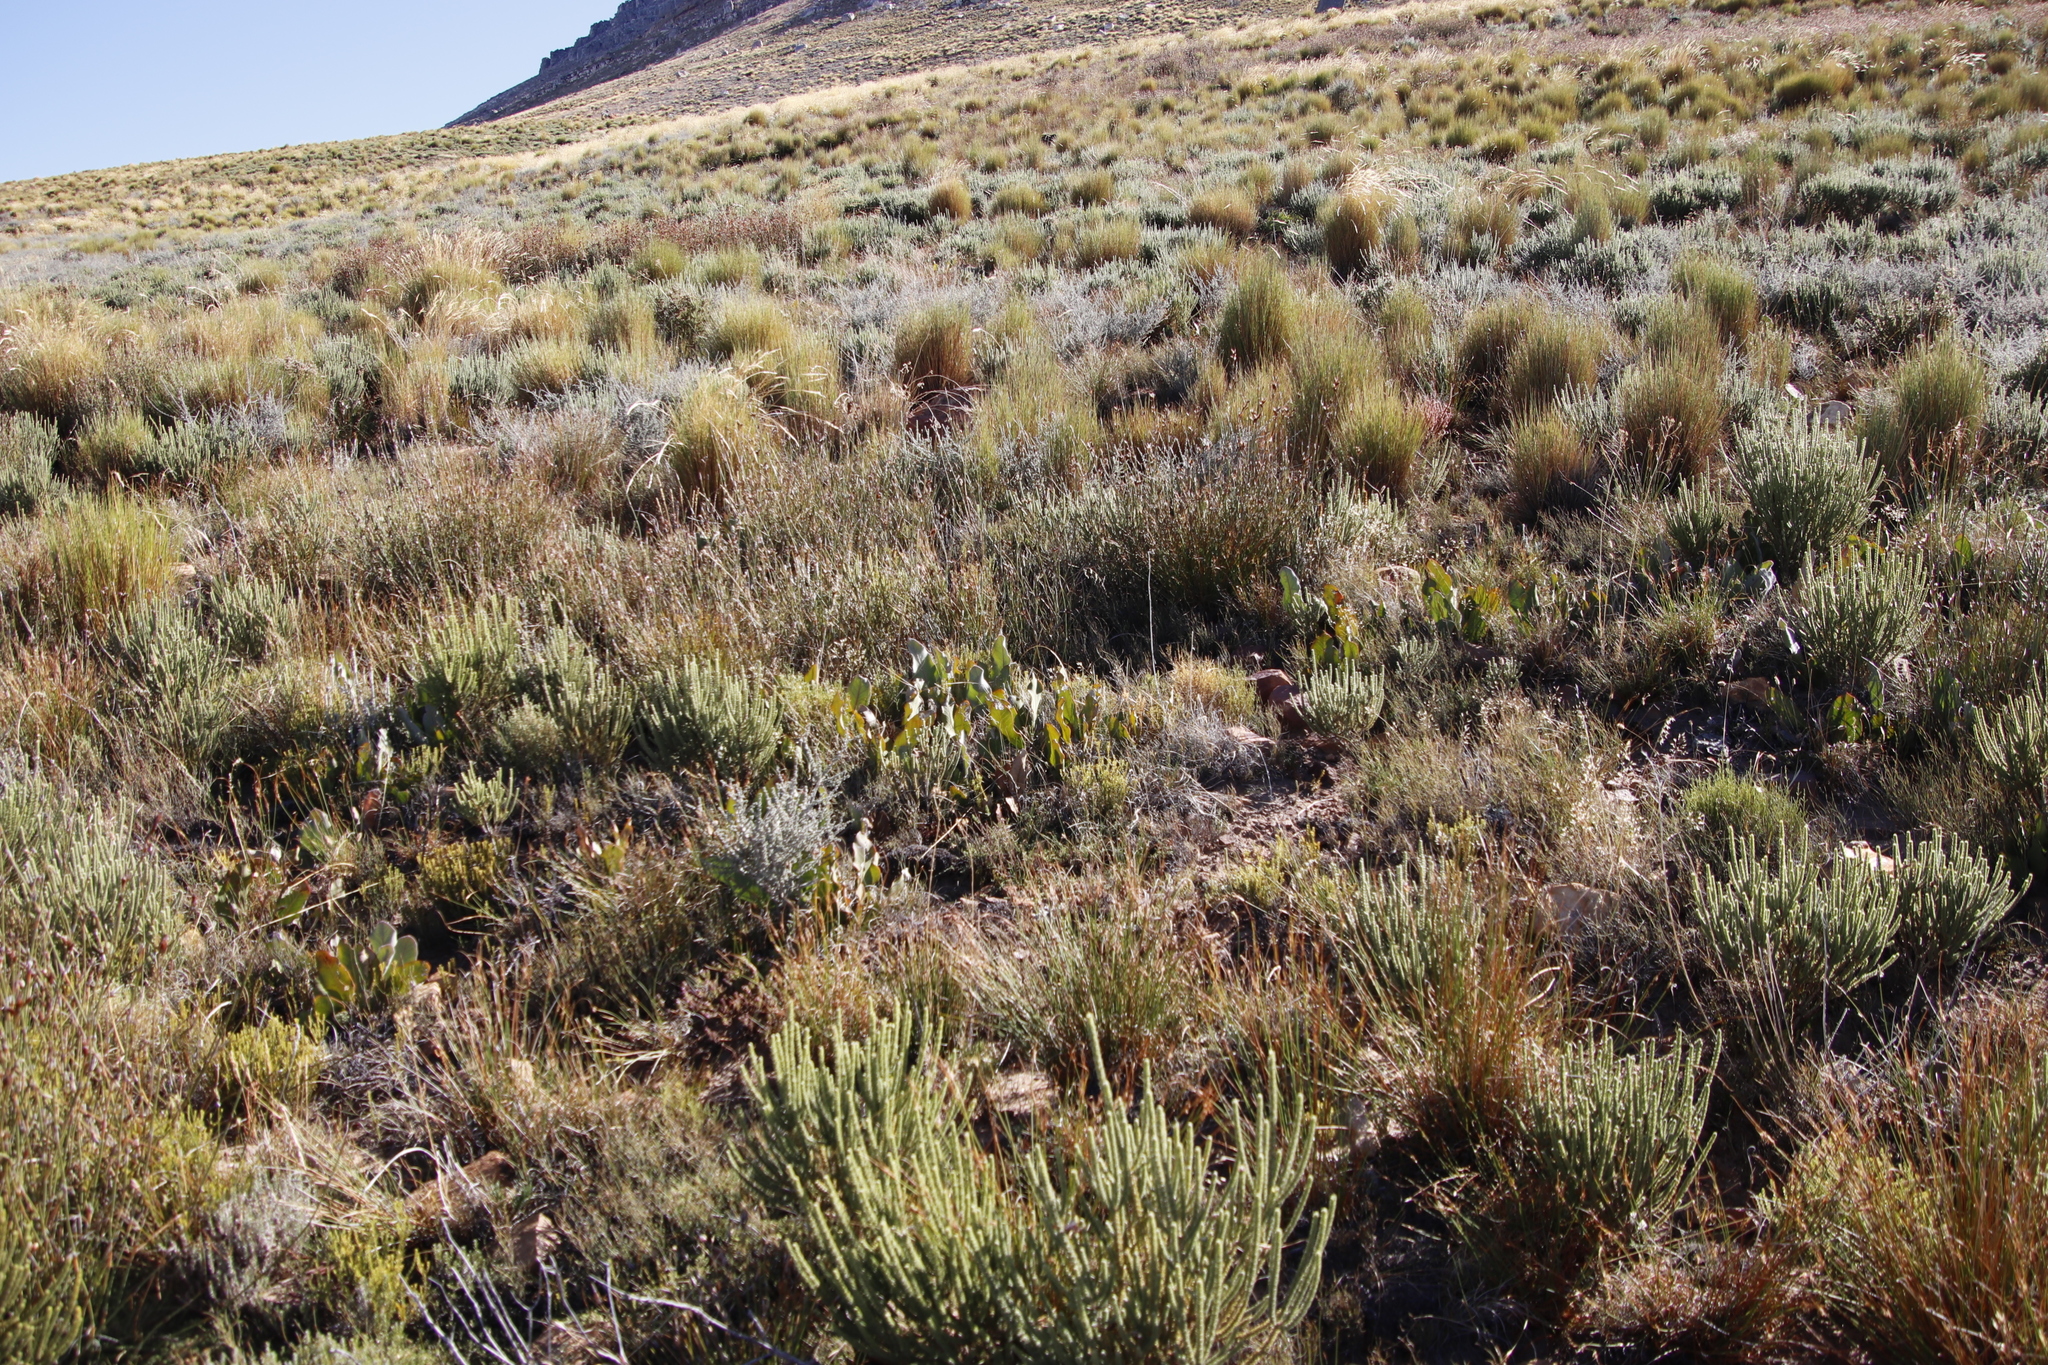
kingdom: Plantae
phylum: Tracheophyta
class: Magnoliopsida
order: Proteales
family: Proteaceae
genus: Protea
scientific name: Protea scolopendriifolia
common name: Harts-tongue-fern sugarbush
